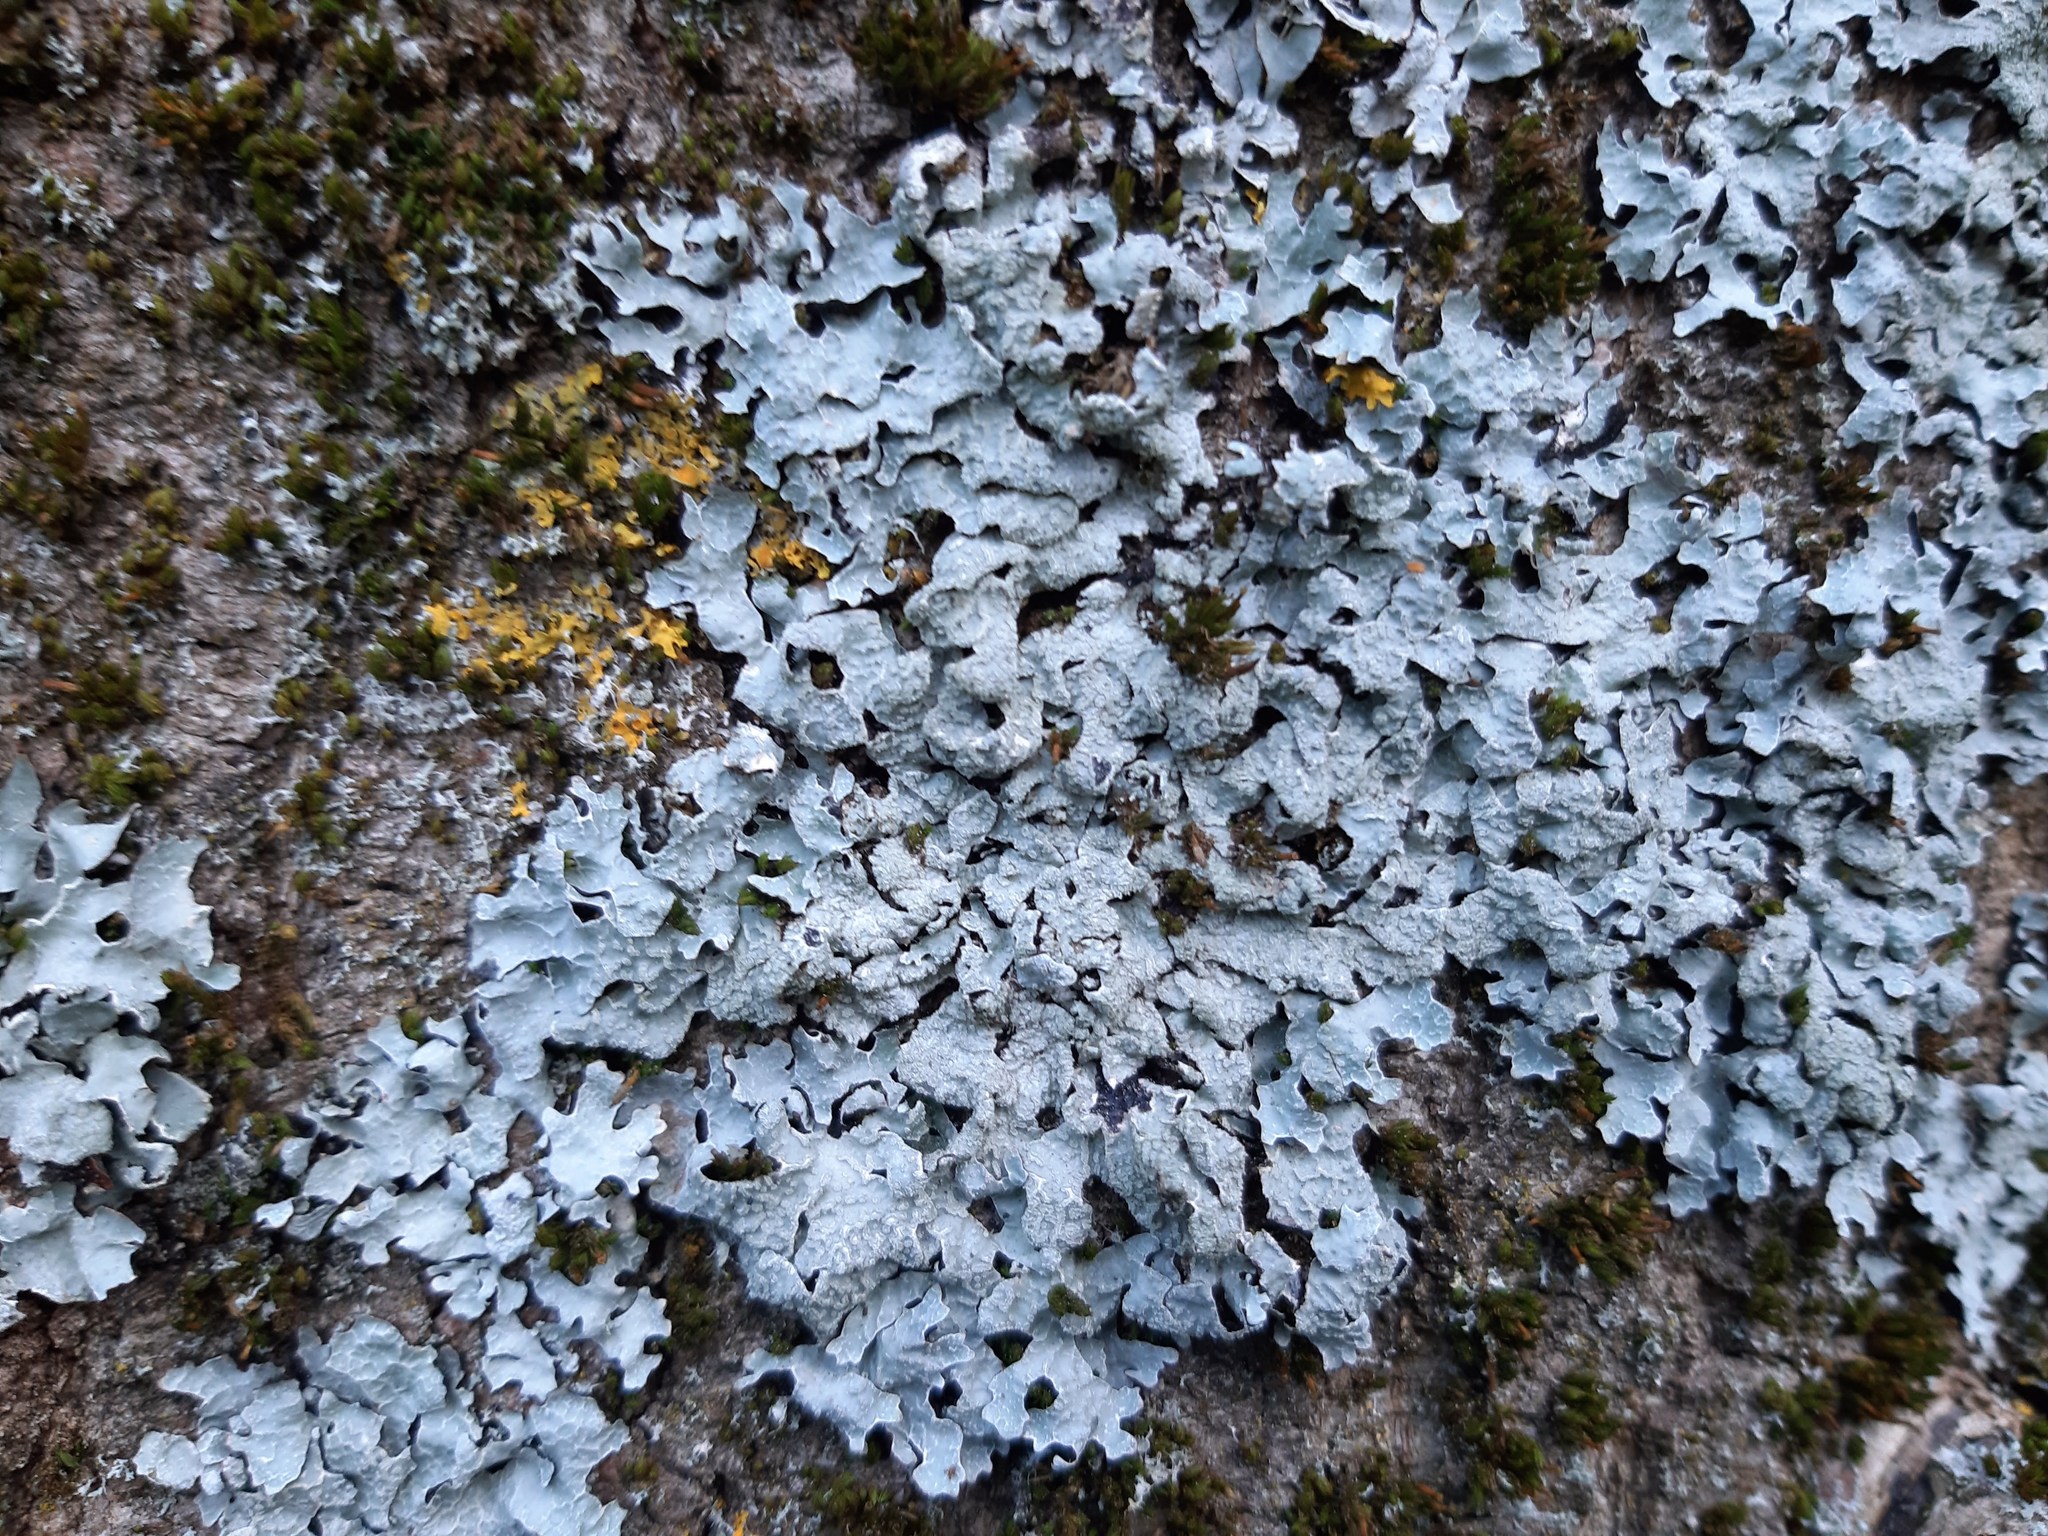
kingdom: Fungi
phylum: Ascomycota
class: Lecanoromycetes
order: Lecanorales
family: Parmeliaceae
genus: Parmelia
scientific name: Parmelia sulcata
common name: Netted shield lichen
